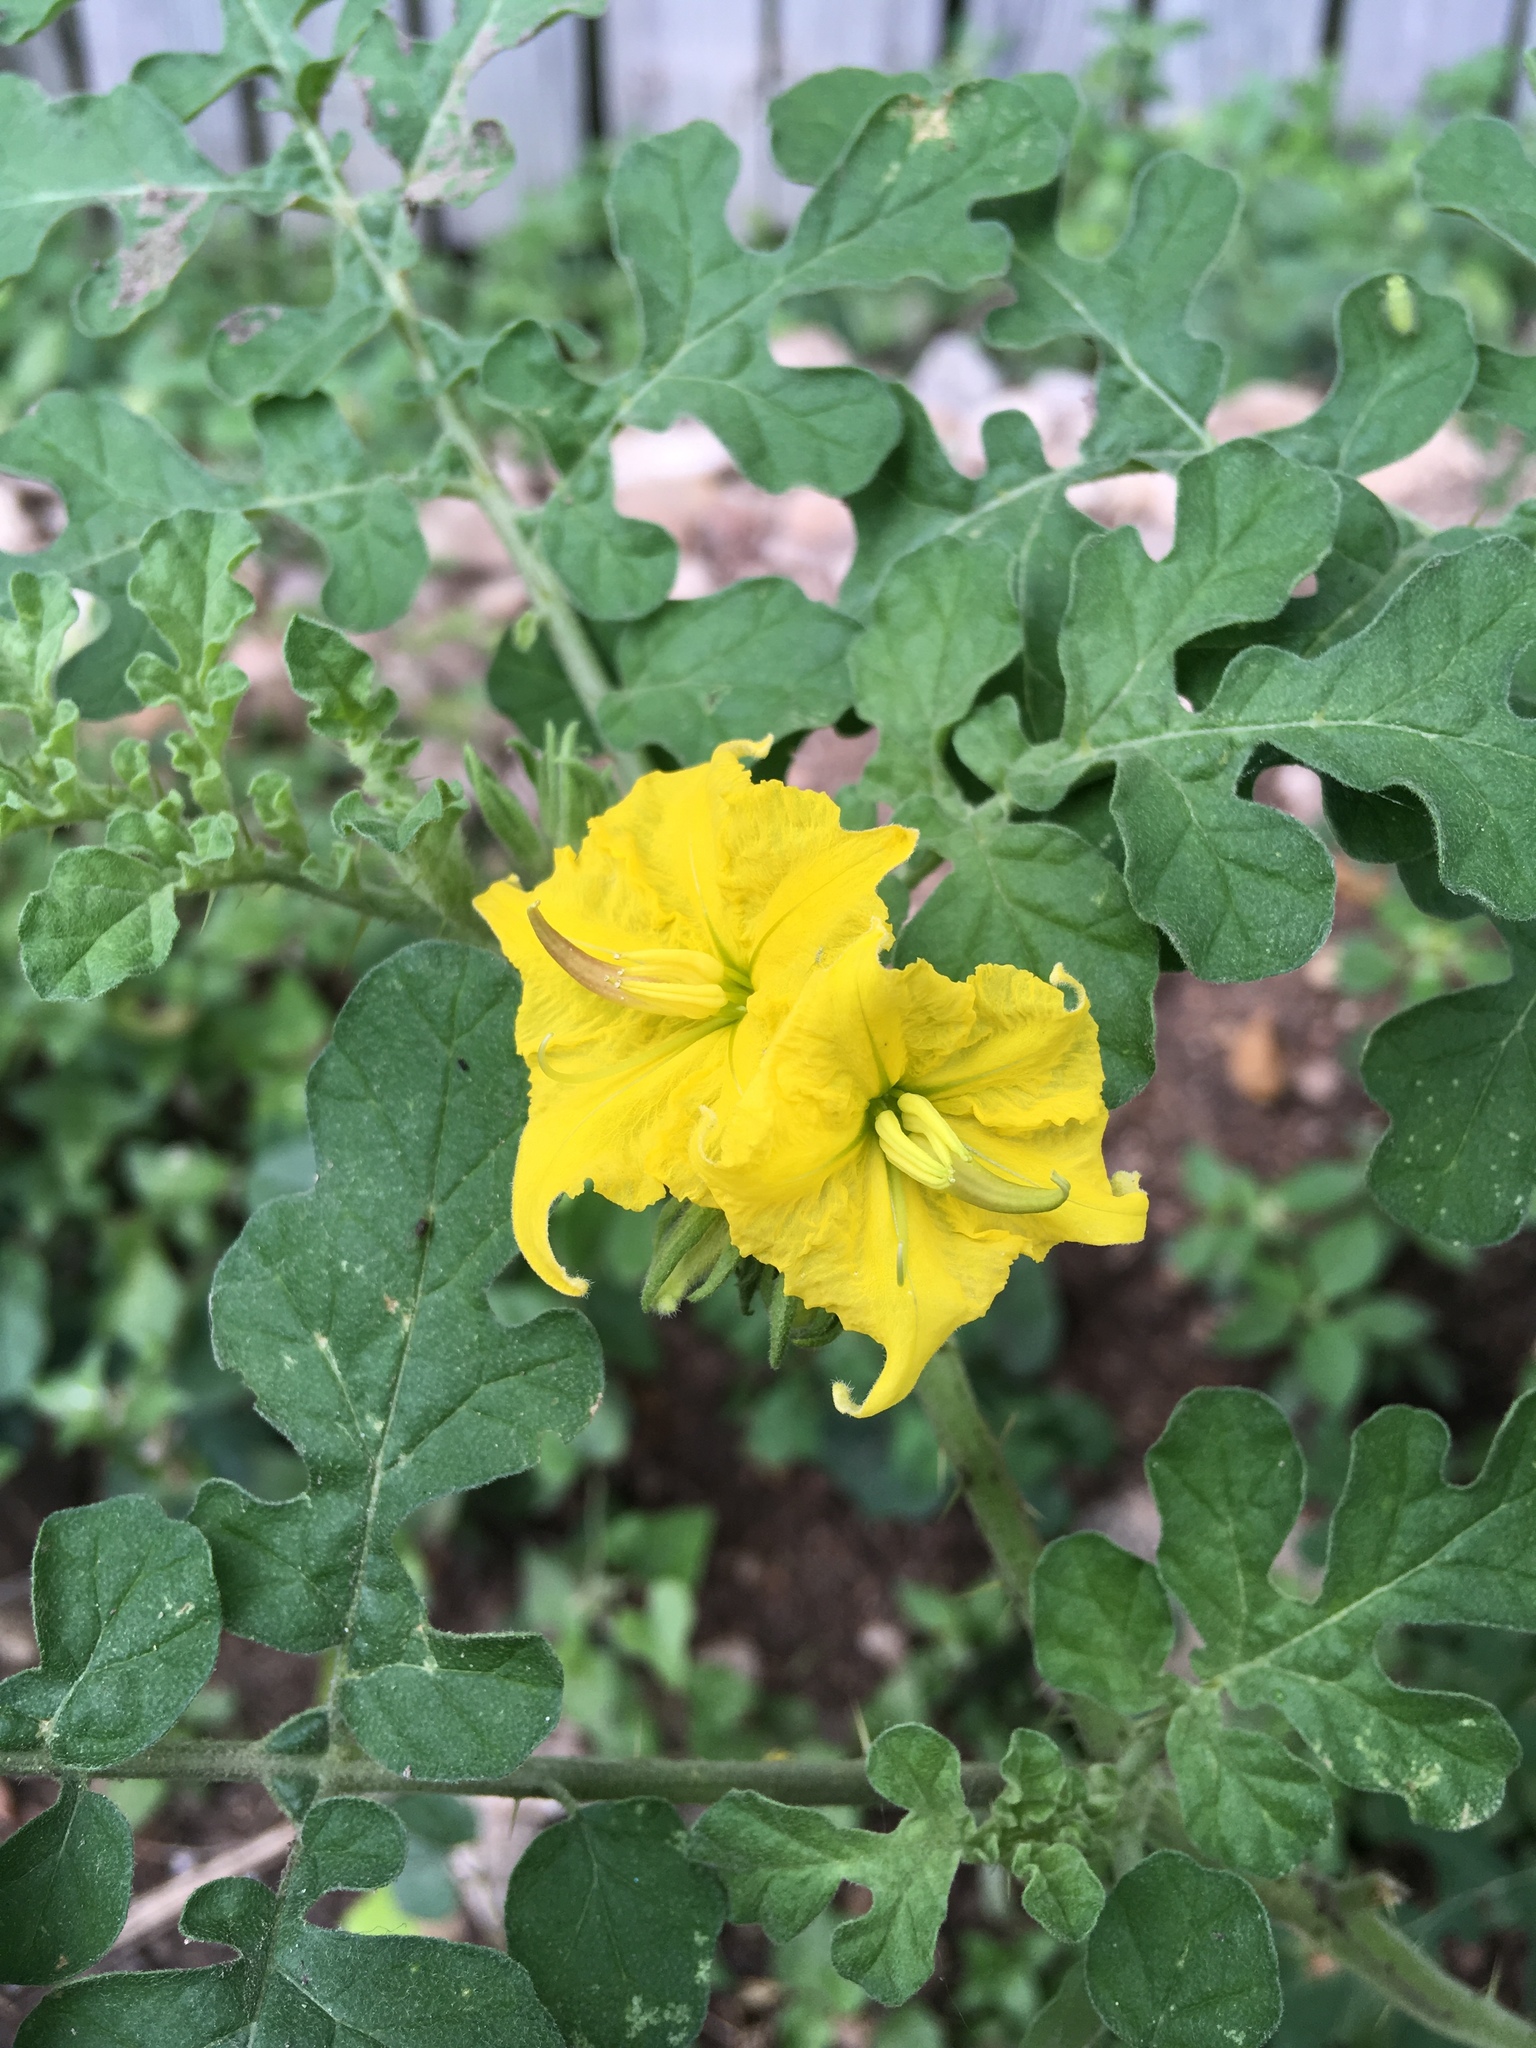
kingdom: Plantae
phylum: Tracheophyta
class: Magnoliopsida
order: Solanales
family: Solanaceae
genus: Solanum
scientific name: Solanum angustifolium
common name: Buffalobur nightshade
